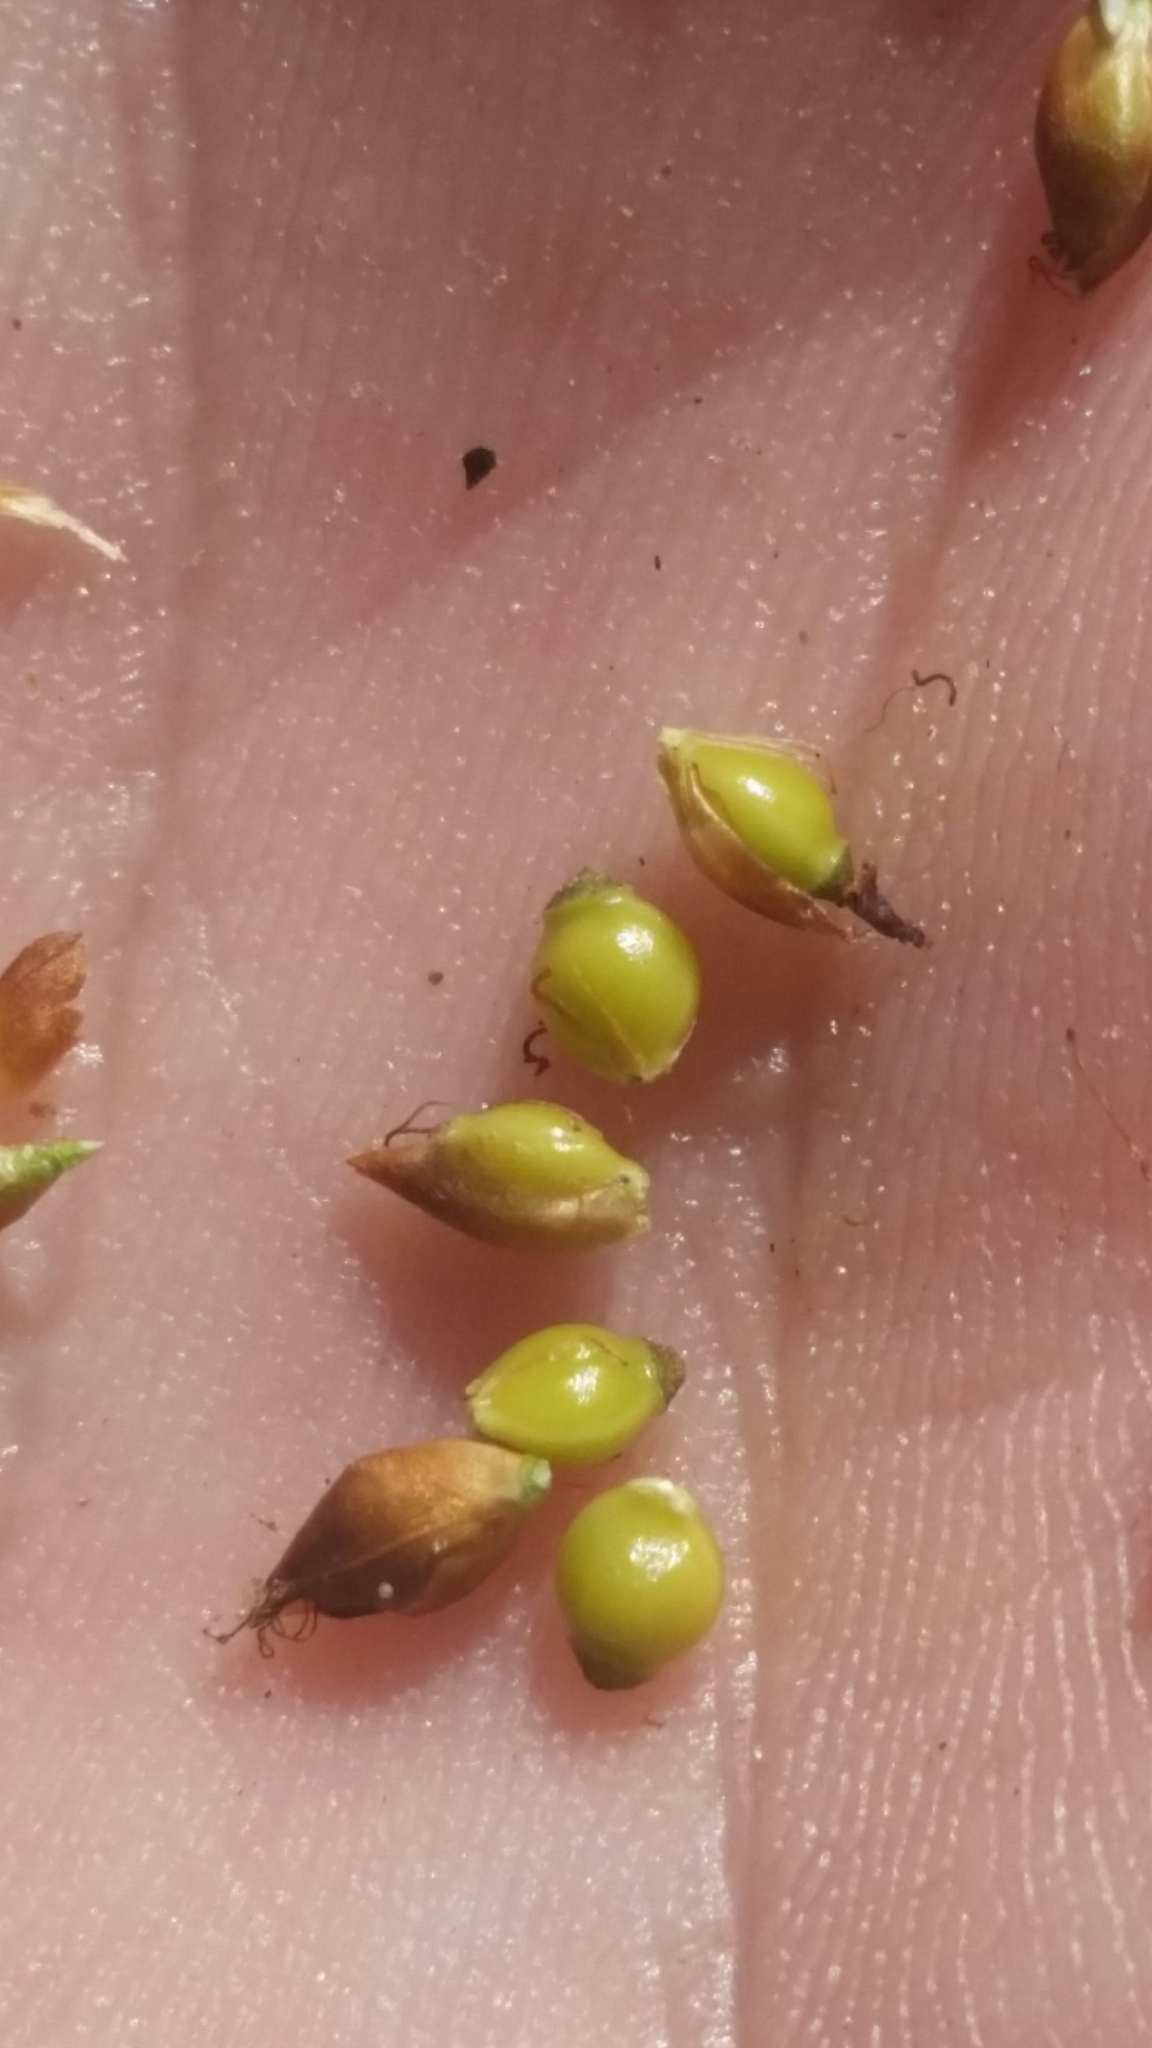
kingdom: Plantae
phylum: Tracheophyta
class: Liliopsida
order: Poales
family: Cyperaceae
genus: Rhynchospora
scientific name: Rhynchospora grayi
